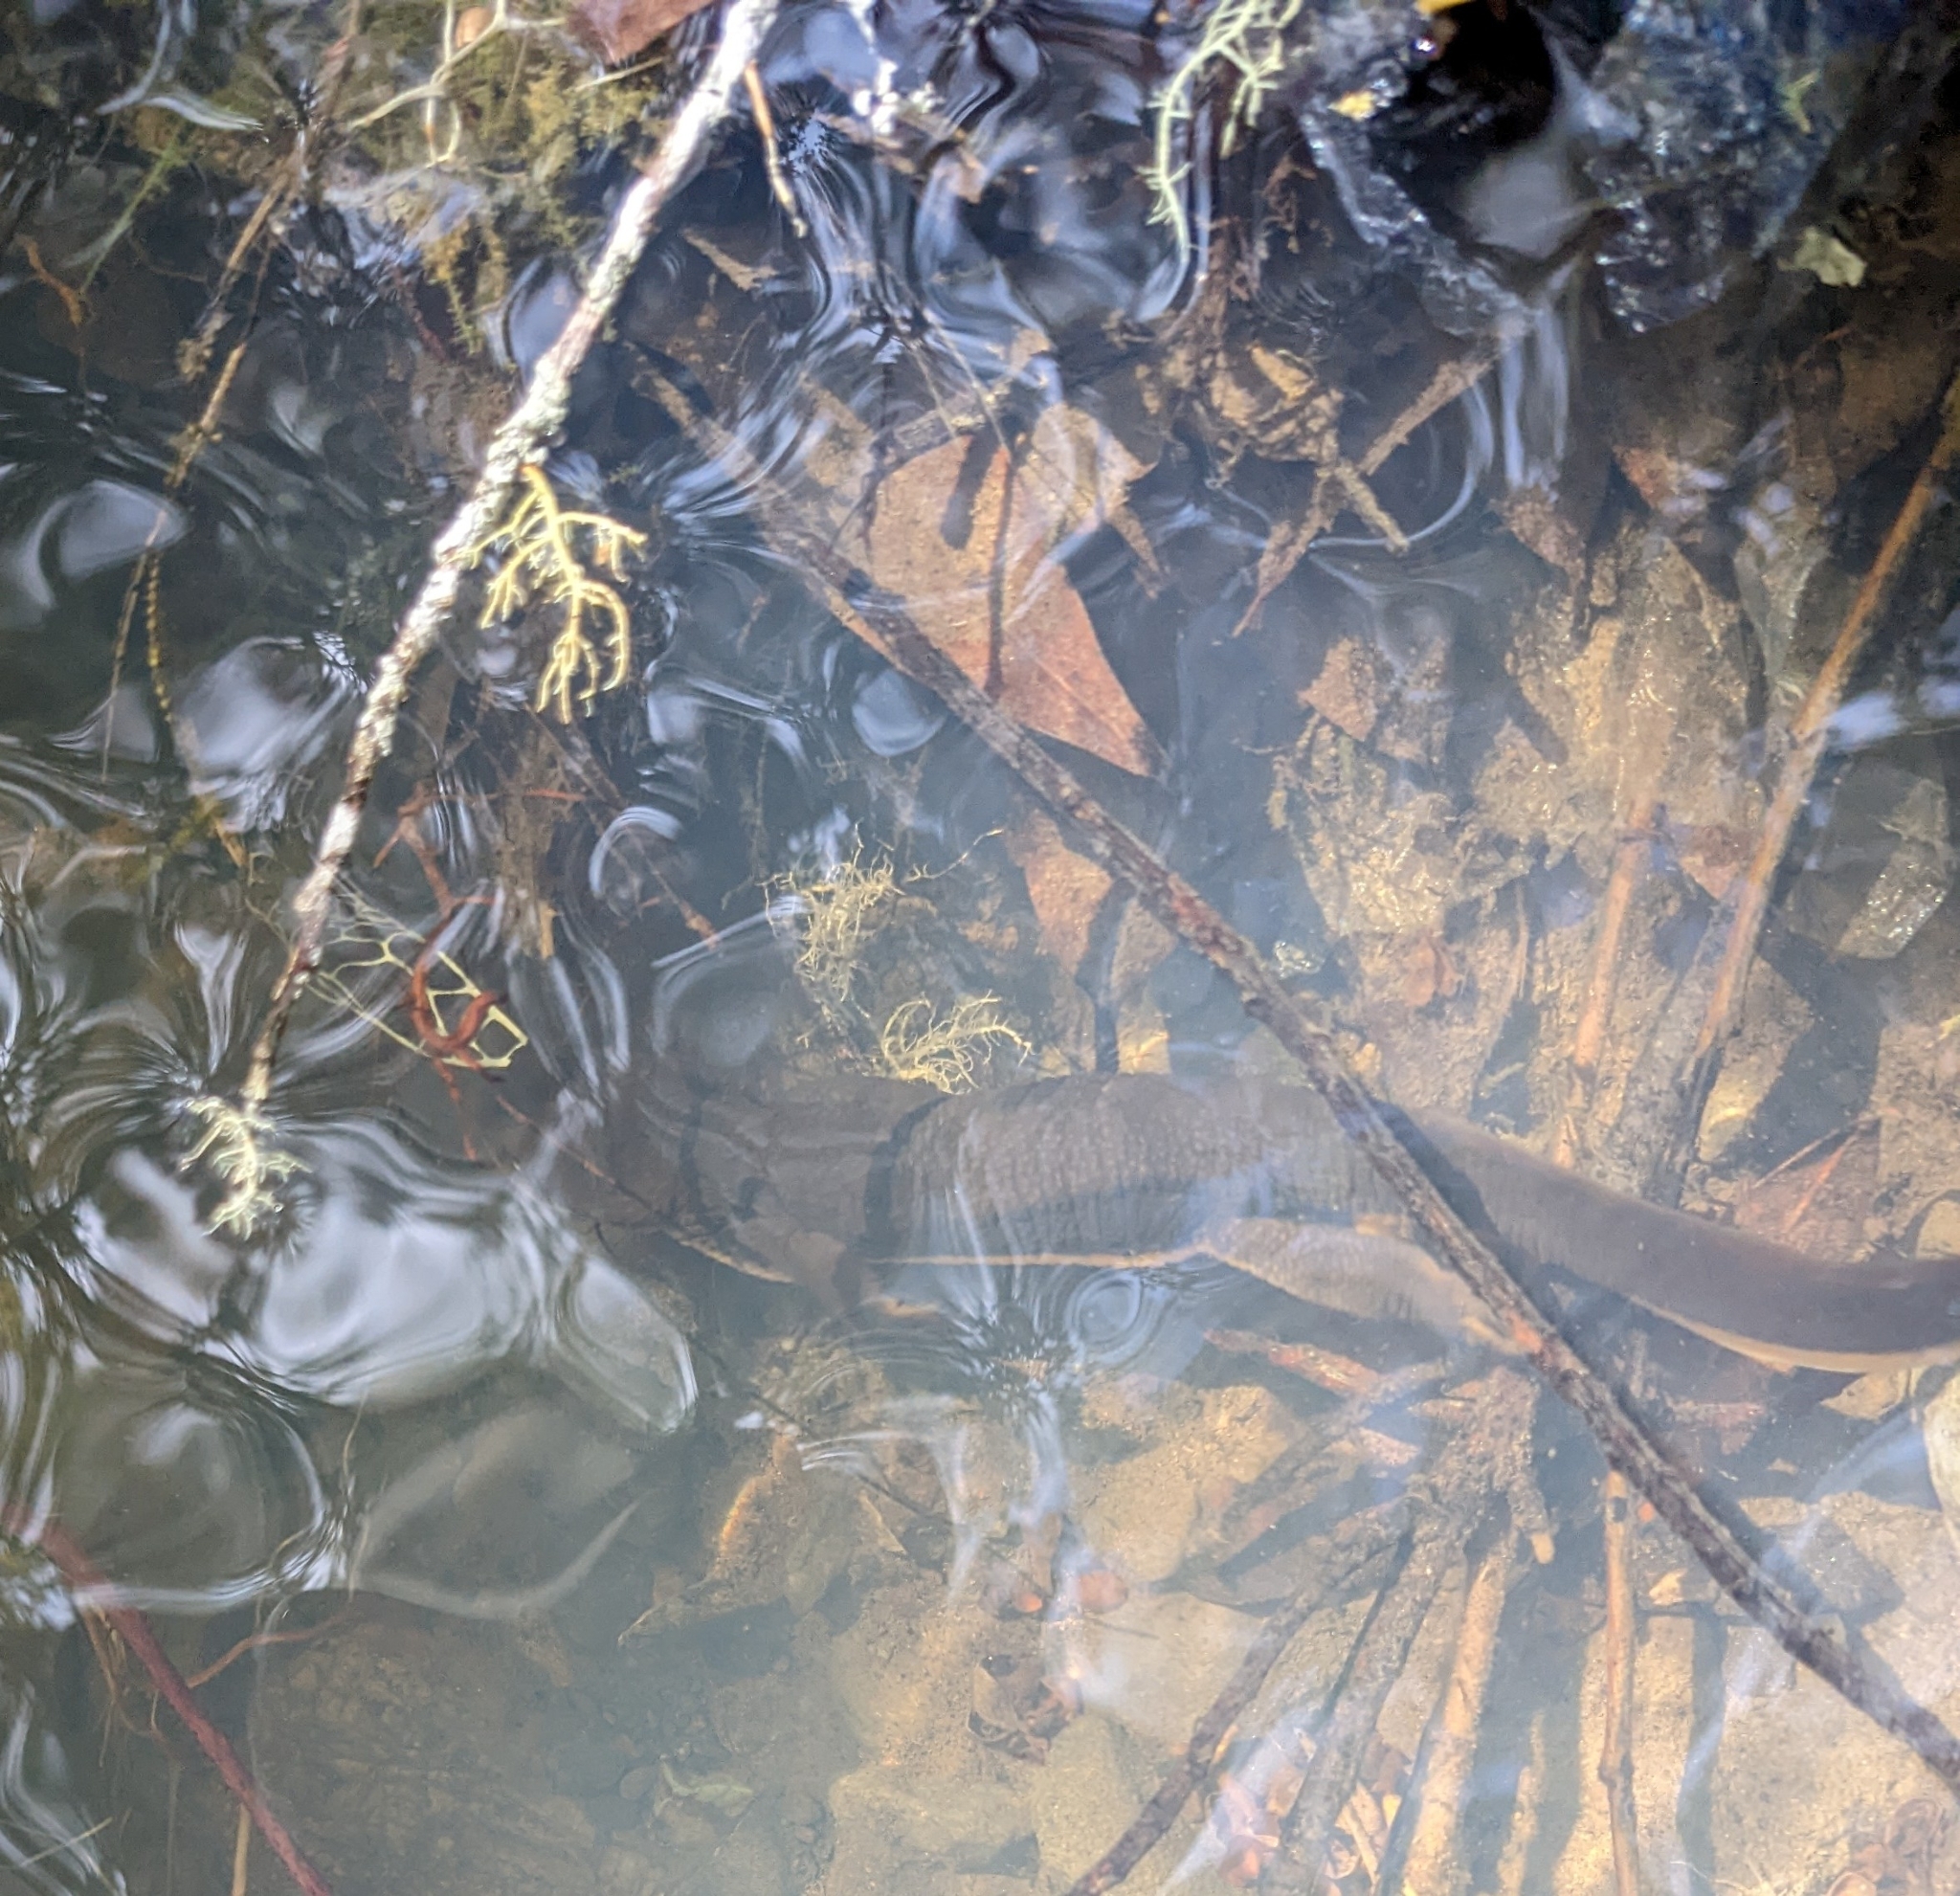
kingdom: Animalia
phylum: Chordata
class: Amphibia
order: Caudata
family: Salamandridae
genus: Taricha
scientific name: Taricha granulosa
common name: Roughskin newt
